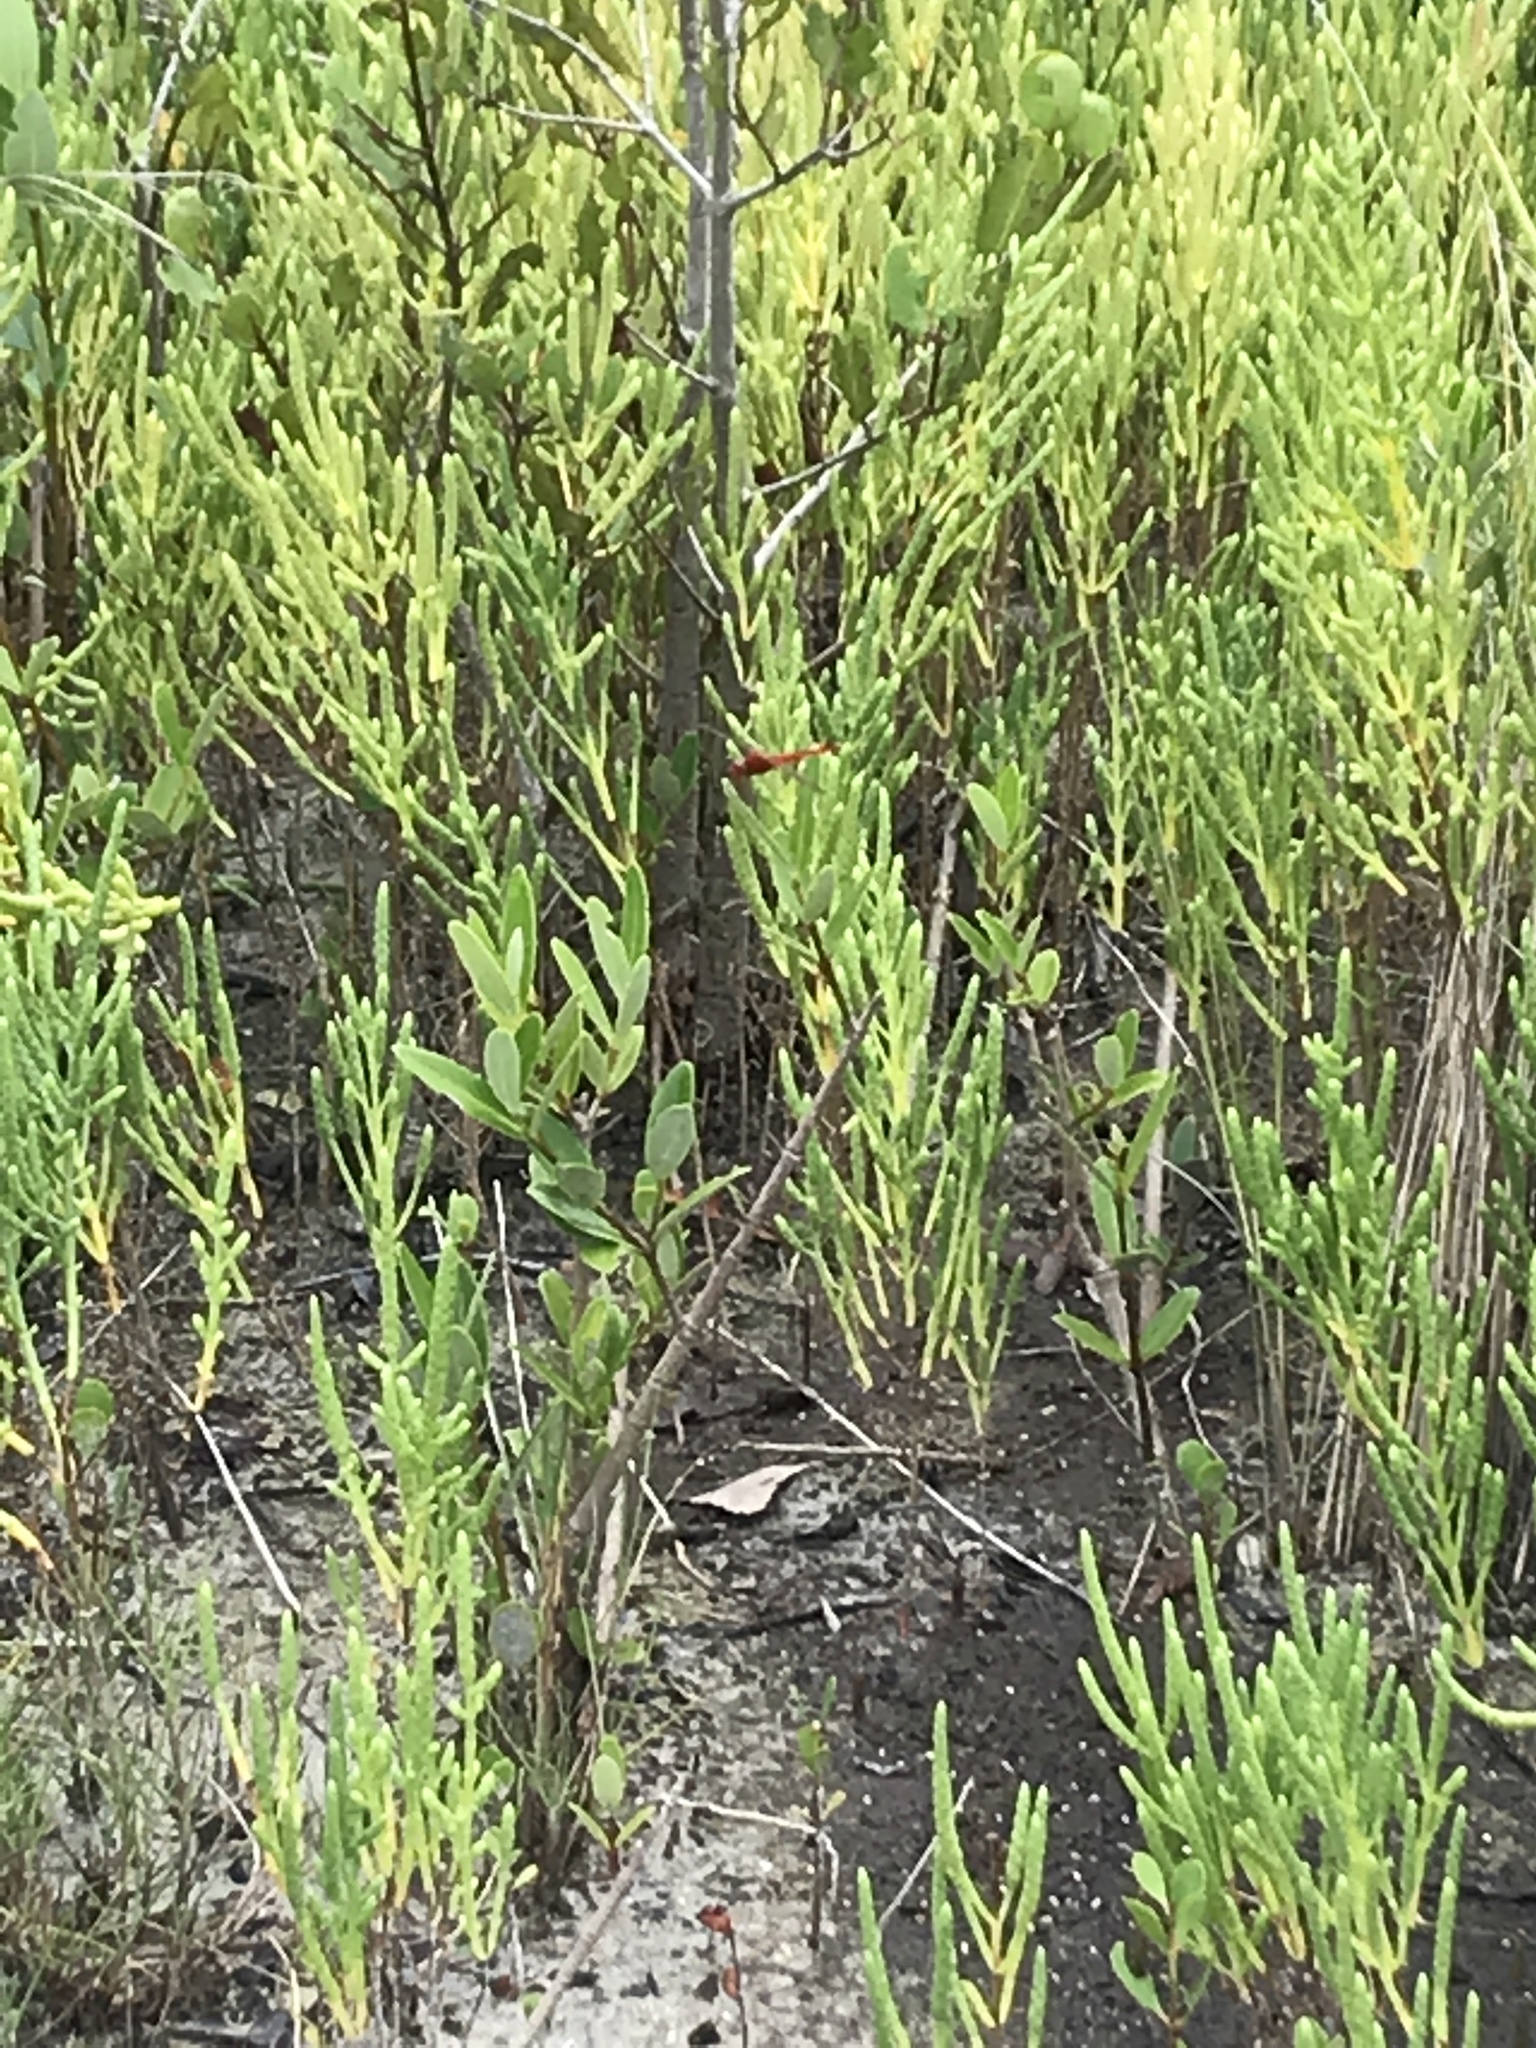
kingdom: Animalia
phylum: Arthropoda
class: Insecta
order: Odonata
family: Libellulidae
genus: Crocothemis
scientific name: Crocothemis servilia
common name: Scarlet skimmer
